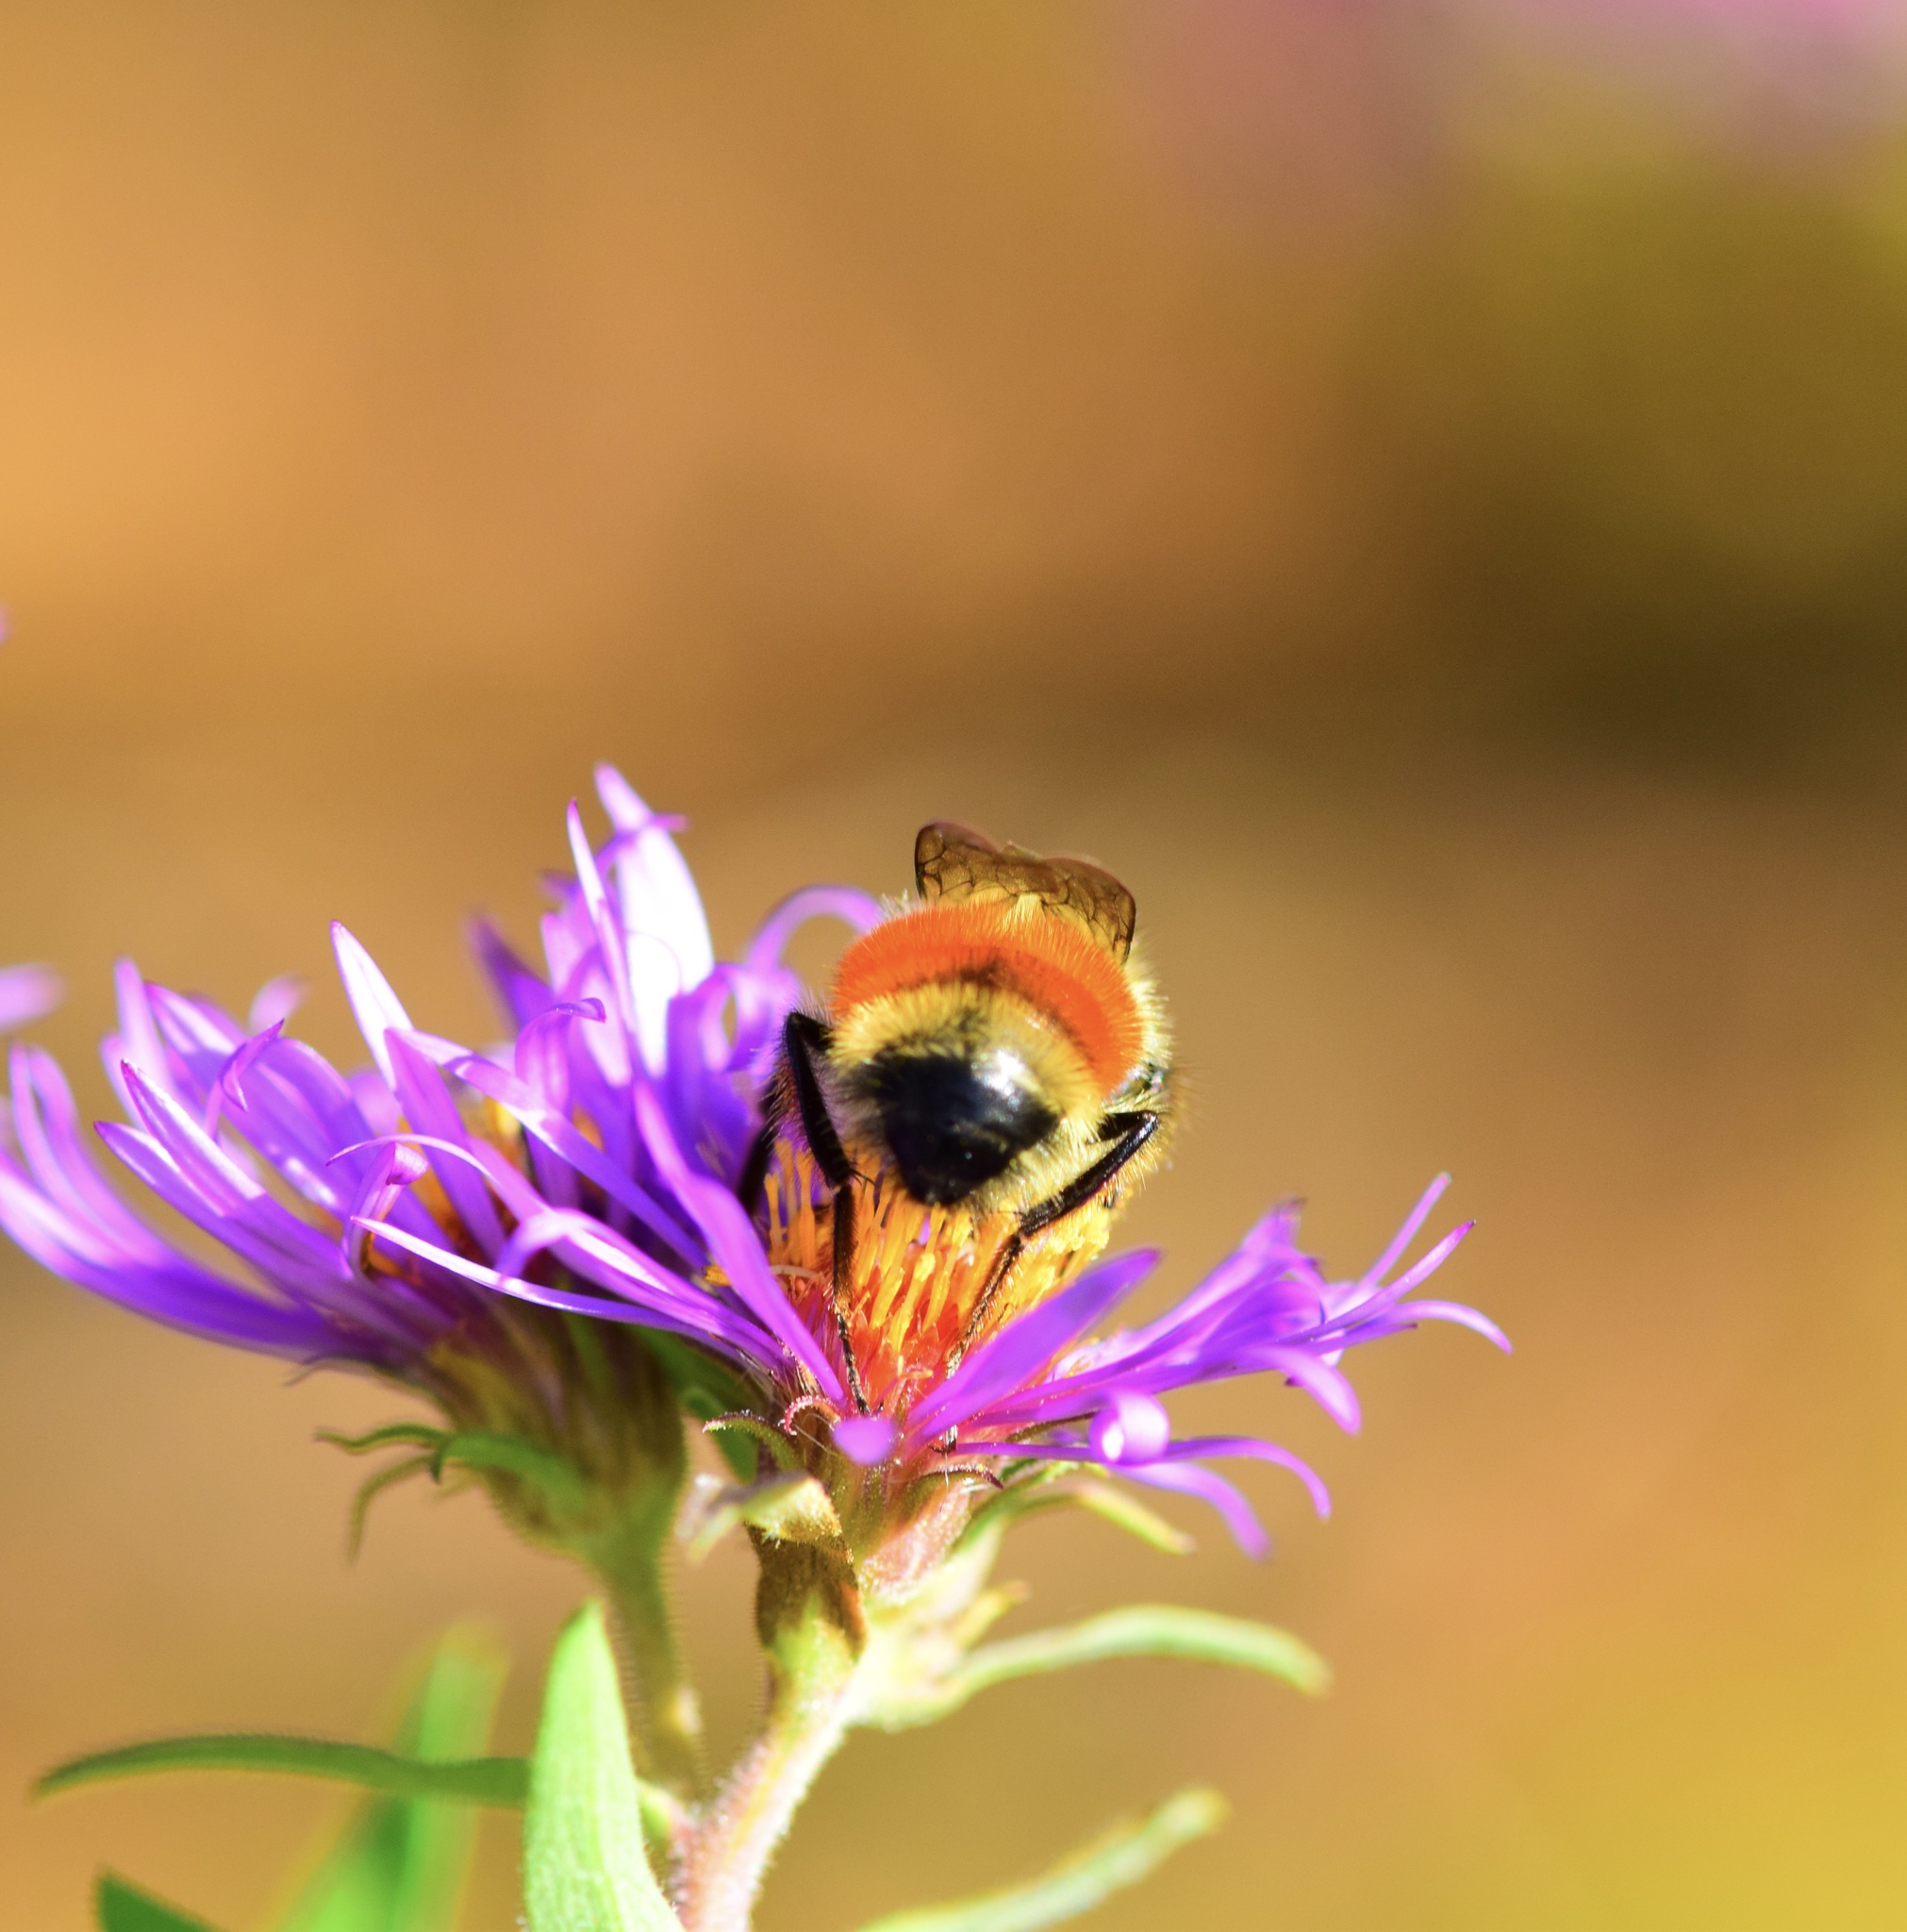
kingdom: Animalia
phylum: Arthropoda
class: Insecta
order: Hymenoptera
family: Apidae
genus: Bombus
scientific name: Bombus ternarius
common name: Tri-colored bumble bee
